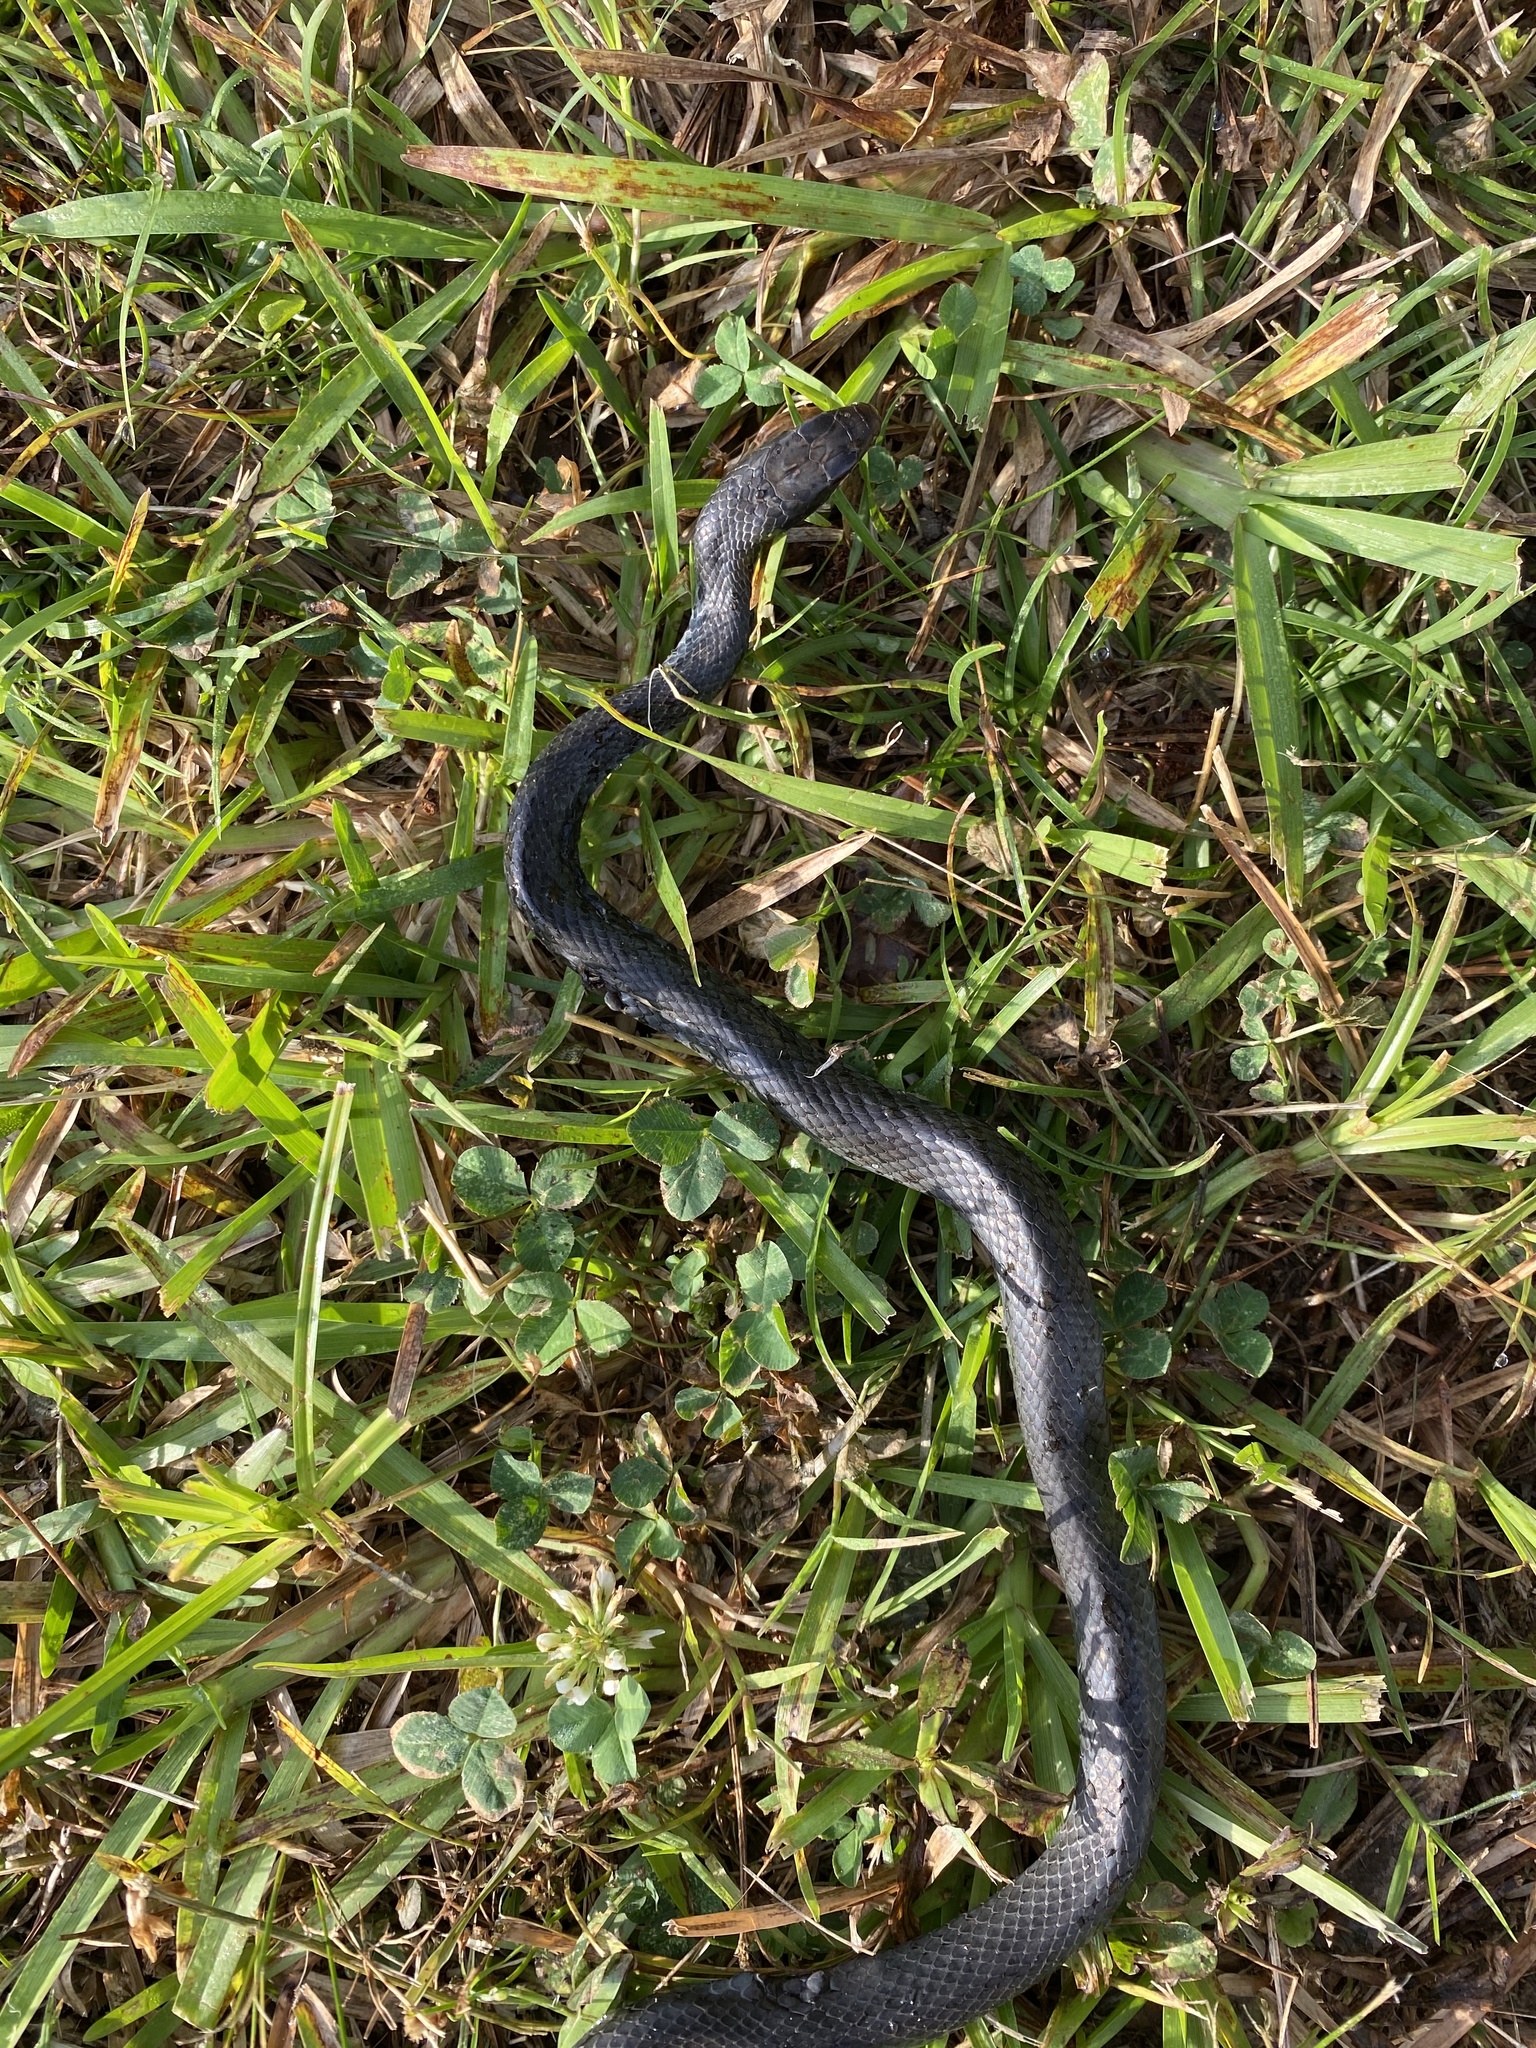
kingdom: Animalia
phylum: Chordata
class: Squamata
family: Colubridae
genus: Coluber
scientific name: Coluber constrictor
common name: Eastern racer
